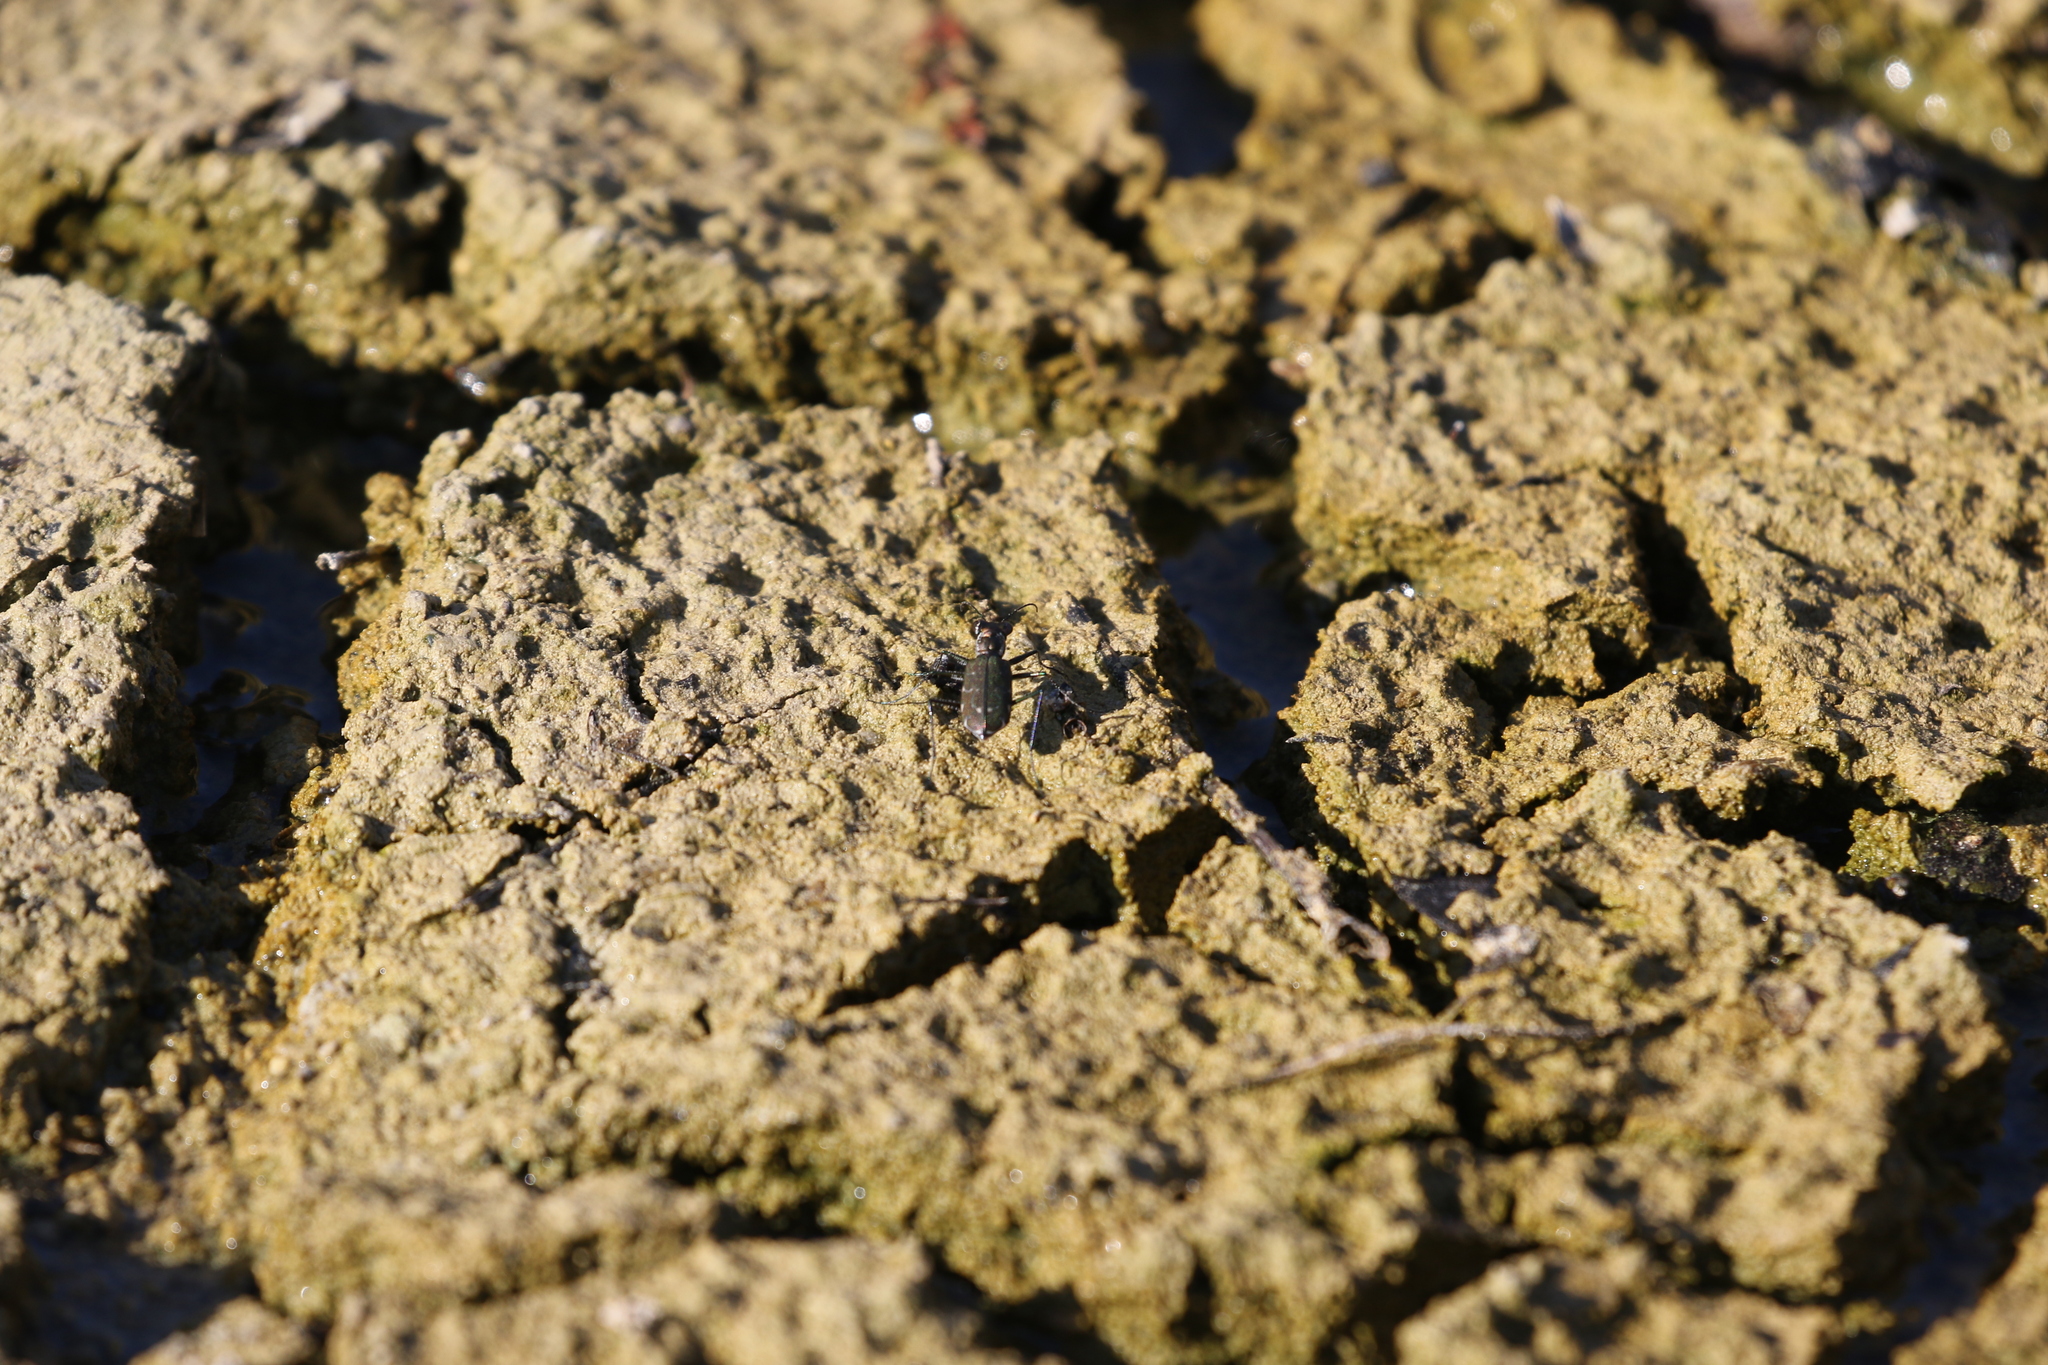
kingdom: Animalia
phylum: Arthropoda
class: Insecta
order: Coleoptera
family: Carabidae
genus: Cicindela
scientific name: Cicindela trifasciata
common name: Mudflat tiger beetle
